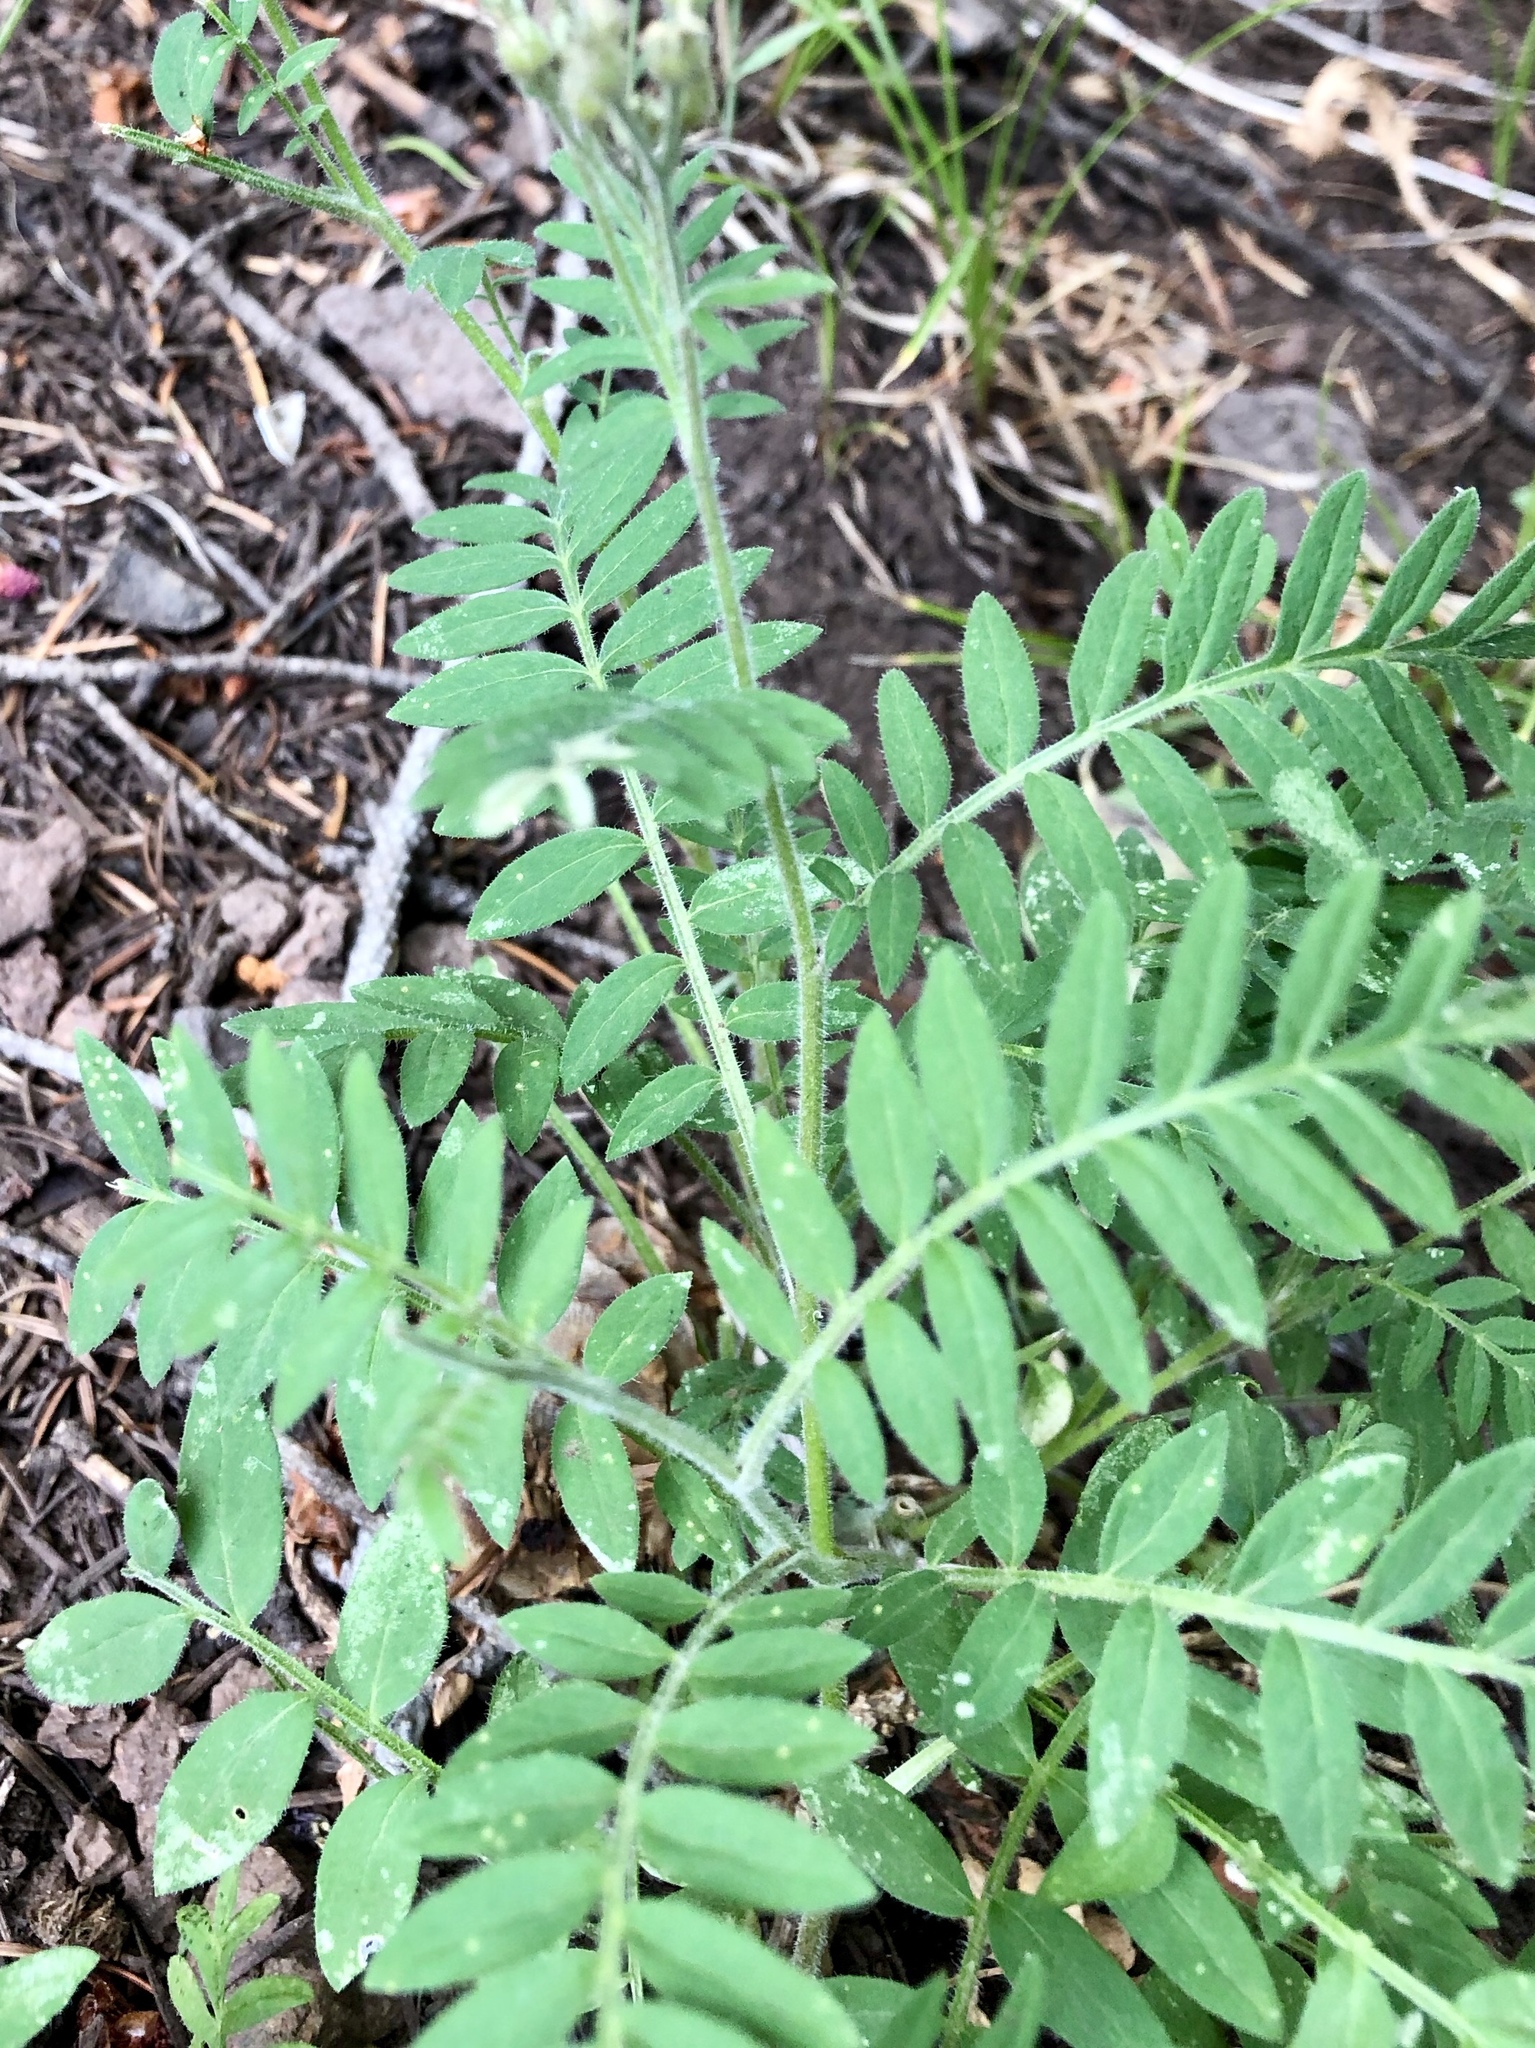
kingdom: Plantae
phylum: Tracheophyta
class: Magnoliopsida
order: Ericales
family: Polemoniaceae
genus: Polemonium
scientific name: Polemonium foliosissimum
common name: Leafy jacob's-ladder
